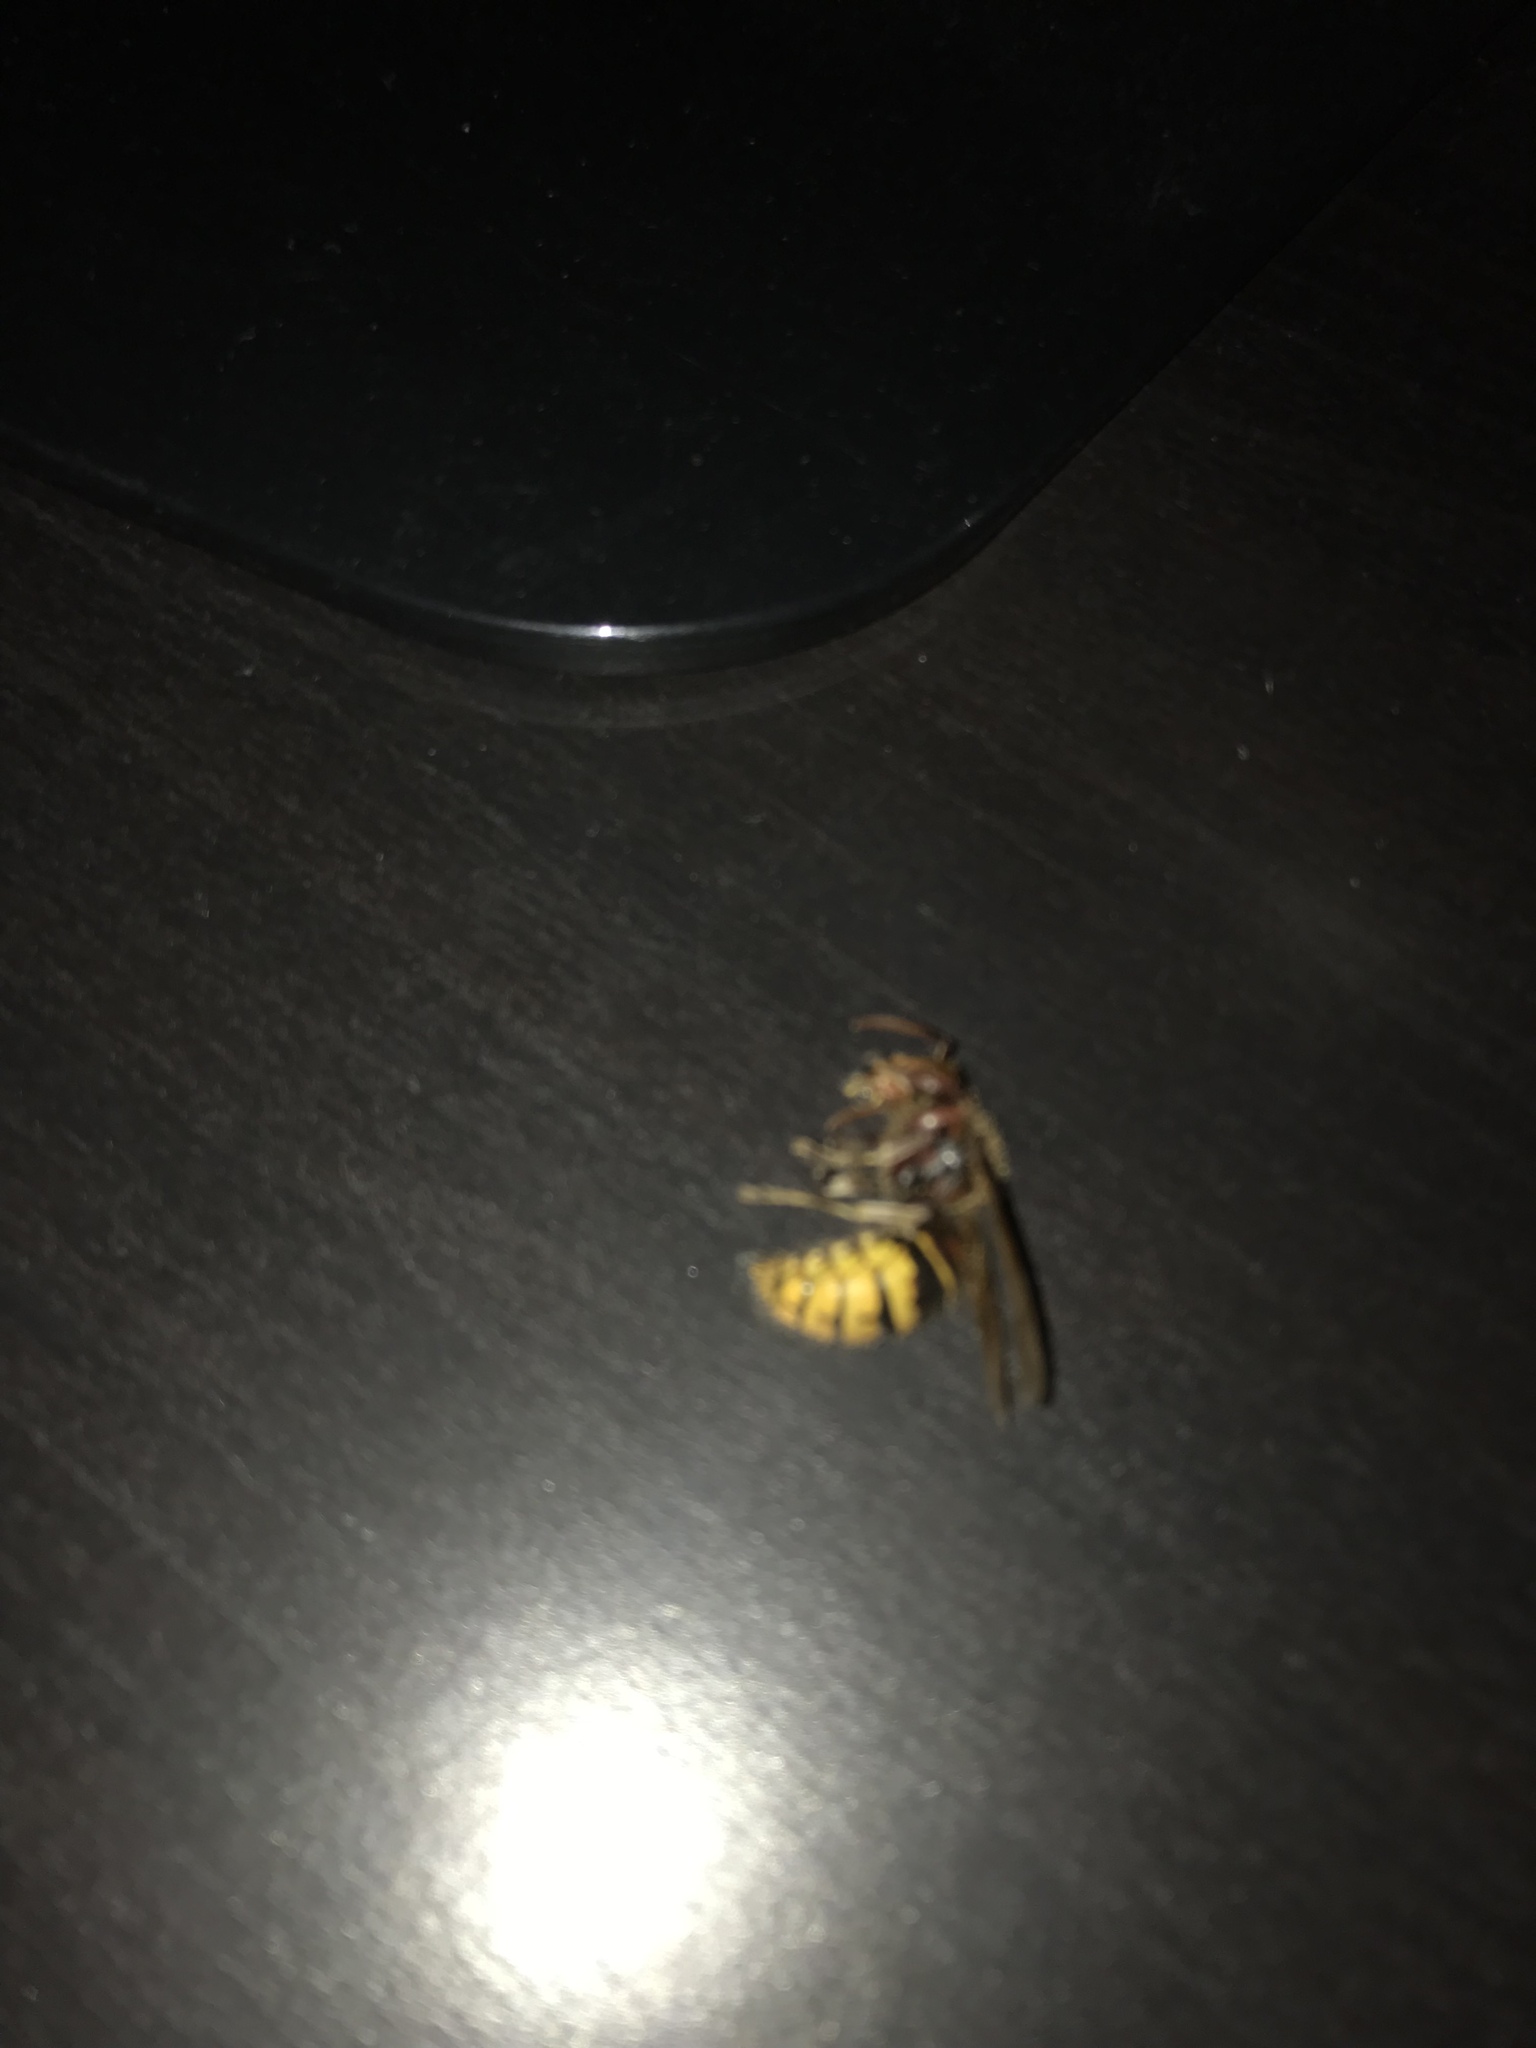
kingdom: Animalia
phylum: Arthropoda
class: Insecta
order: Hymenoptera
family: Vespidae
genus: Vespa
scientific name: Vespa crabro
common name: Hornet
